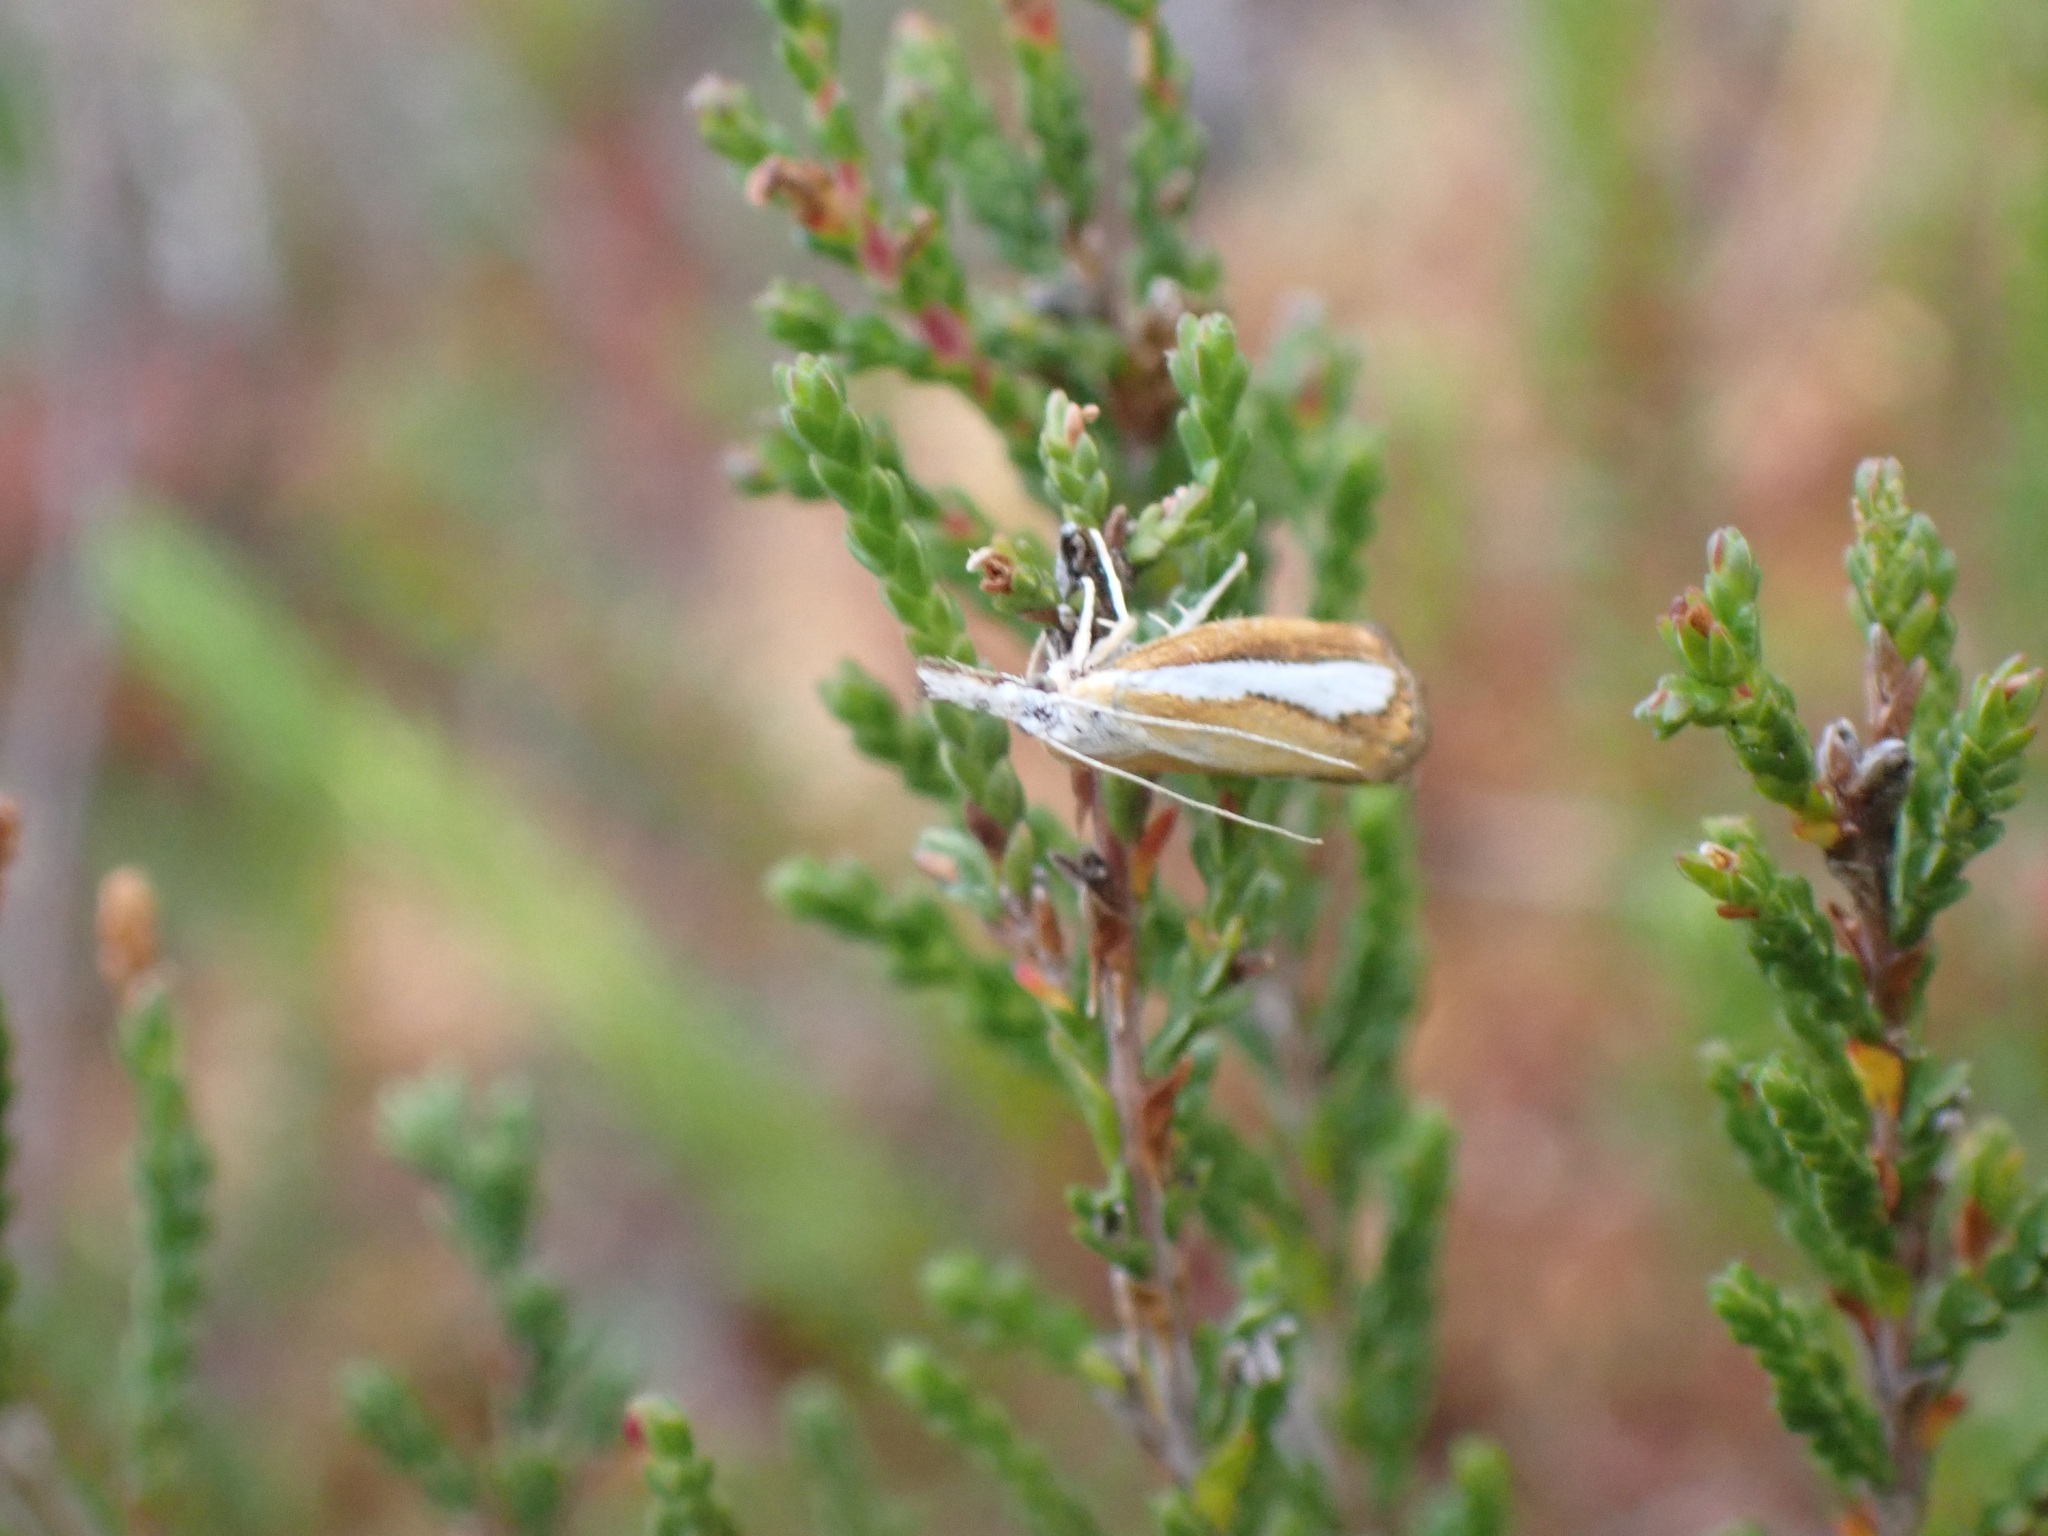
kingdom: Animalia
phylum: Arthropoda
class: Insecta
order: Lepidoptera
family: Crambidae
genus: Catoptria
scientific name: Catoptria margaritellus
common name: Pearl-band grass veneer
